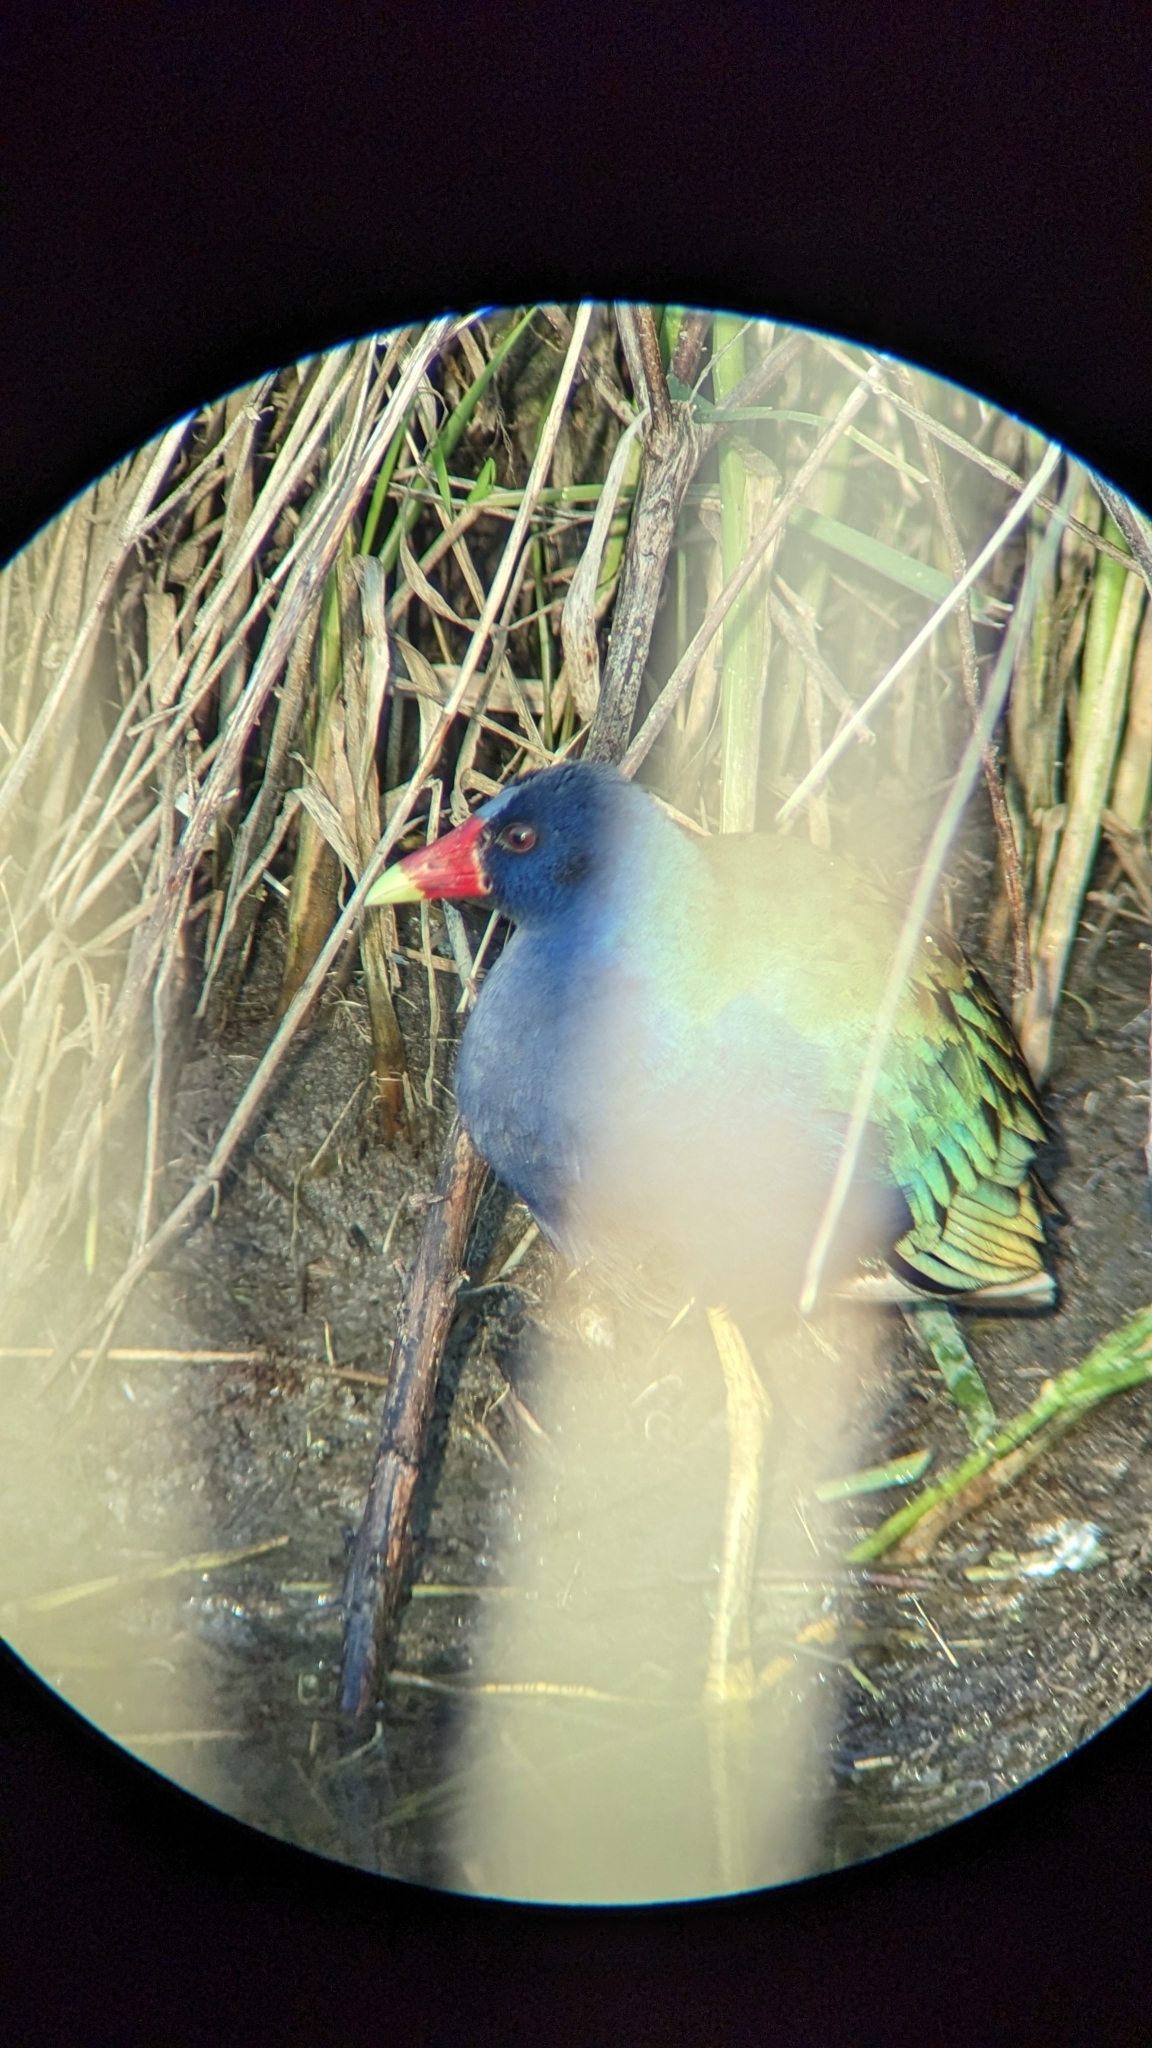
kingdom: Animalia
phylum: Chordata
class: Aves
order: Gruiformes
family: Rallidae
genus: Porphyrio
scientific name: Porphyrio martinica
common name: Purple gallinule
